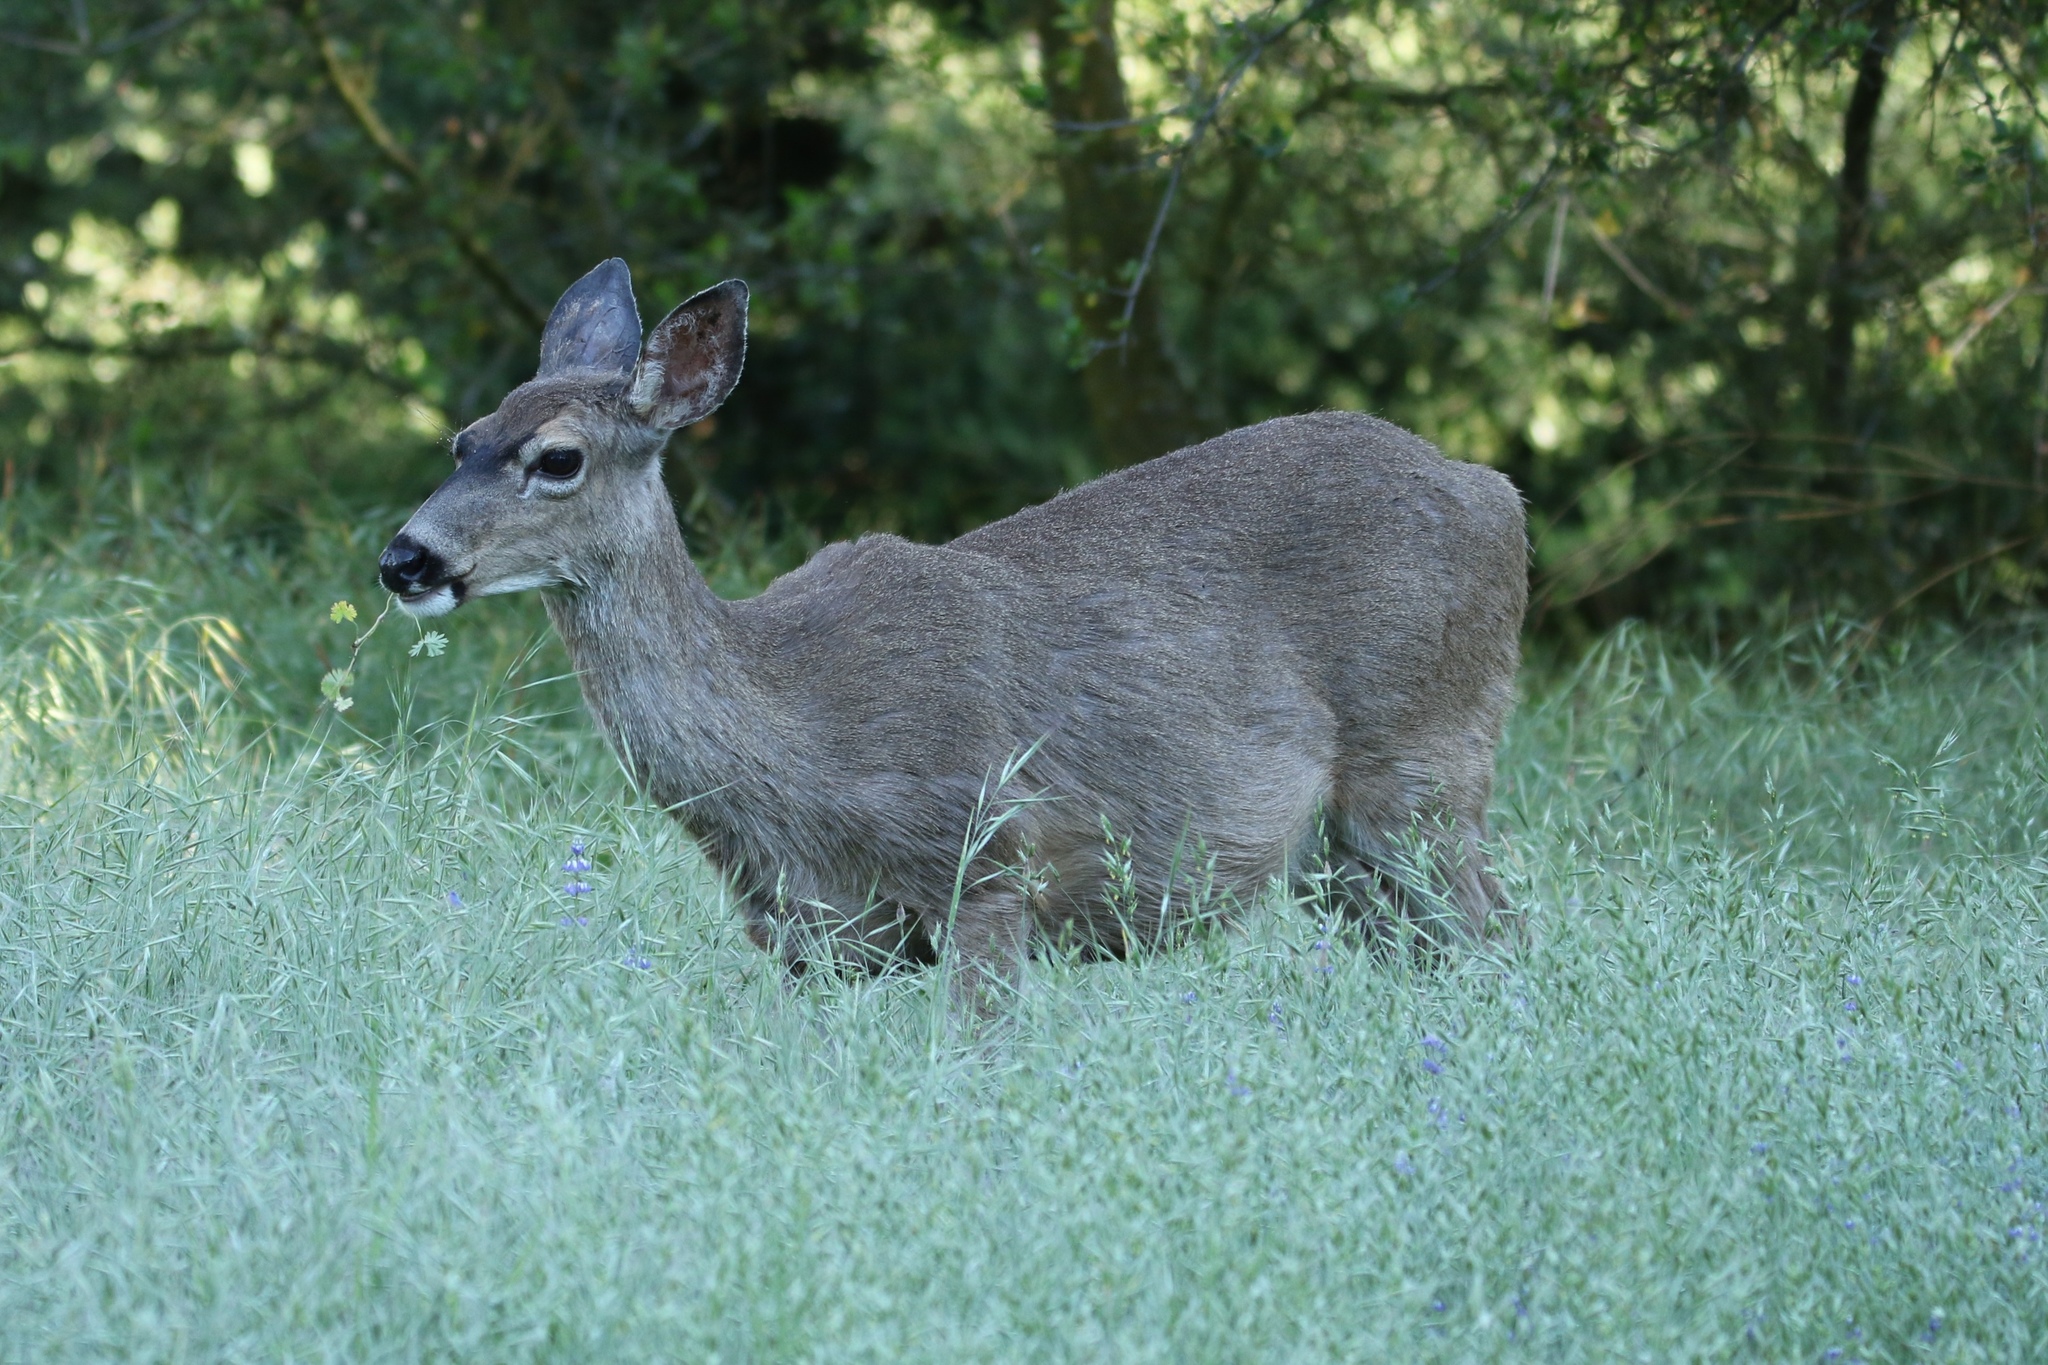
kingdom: Animalia
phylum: Chordata
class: Mammalia
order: Artiodactyla
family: Cervidae
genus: Odocoileus
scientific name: Odocoileus hemionus
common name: Mule deer
